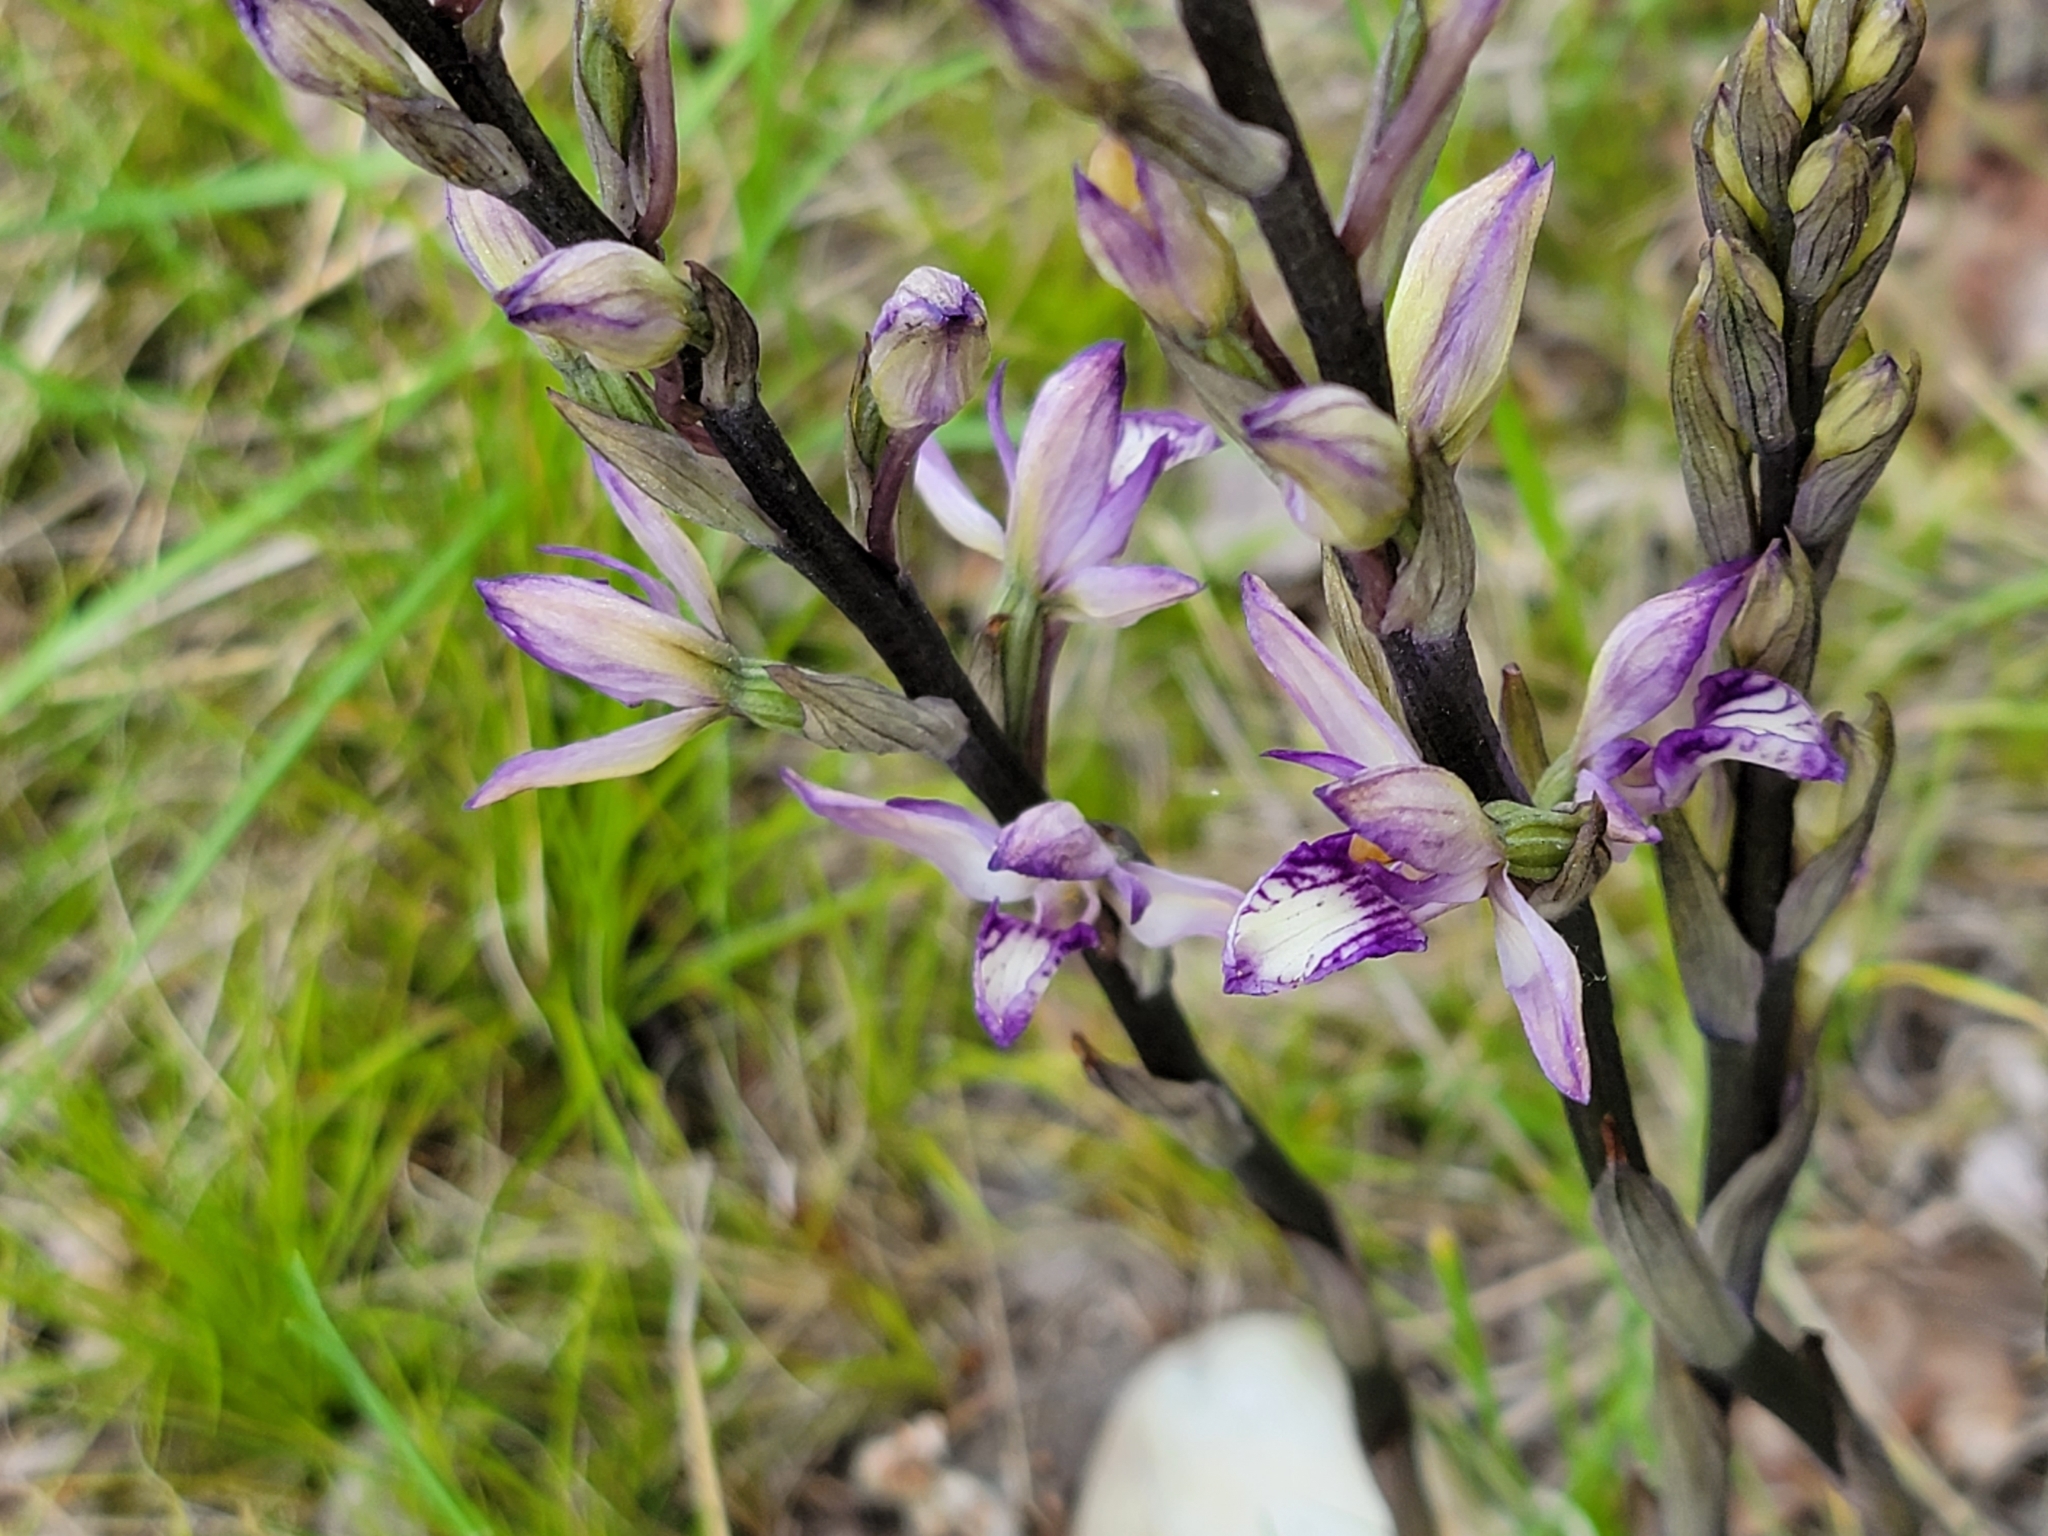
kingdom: Plantae
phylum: Tracheophyta
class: Liliopsida
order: Asparagales
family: Orchidaceae
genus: Limodorum
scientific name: Limodorum abortivum
